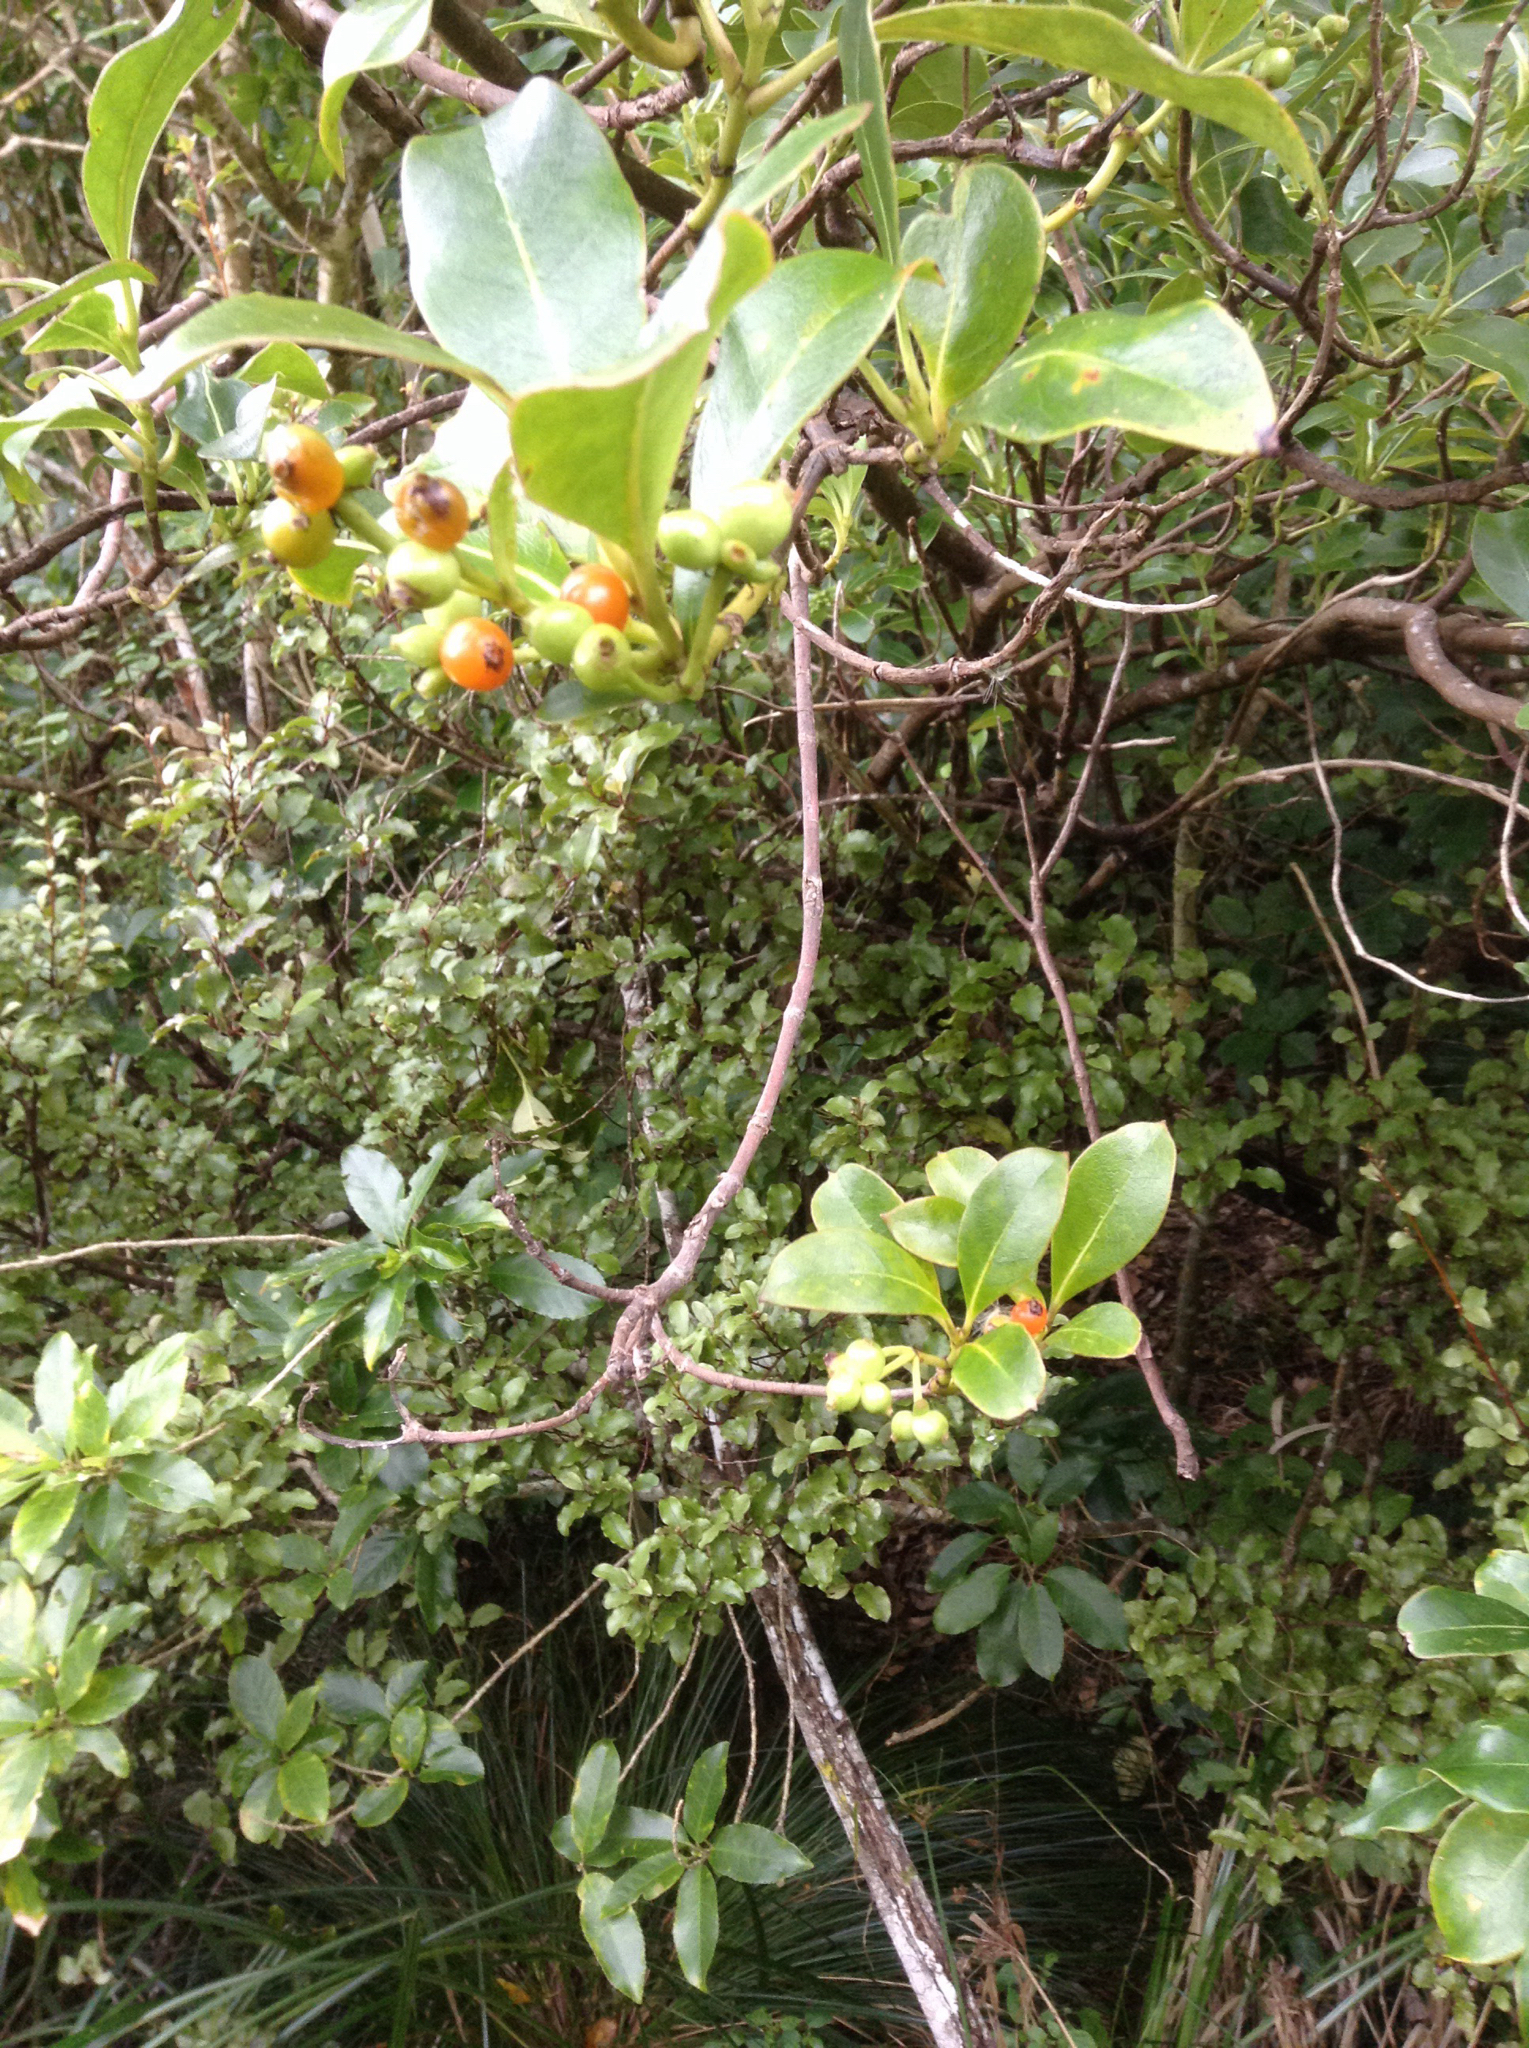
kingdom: Plantae
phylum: Tracheophyta
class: Magnoliopsida
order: Gentianales
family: Rubiaceae
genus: Coprosma
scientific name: Coprosma lucida
